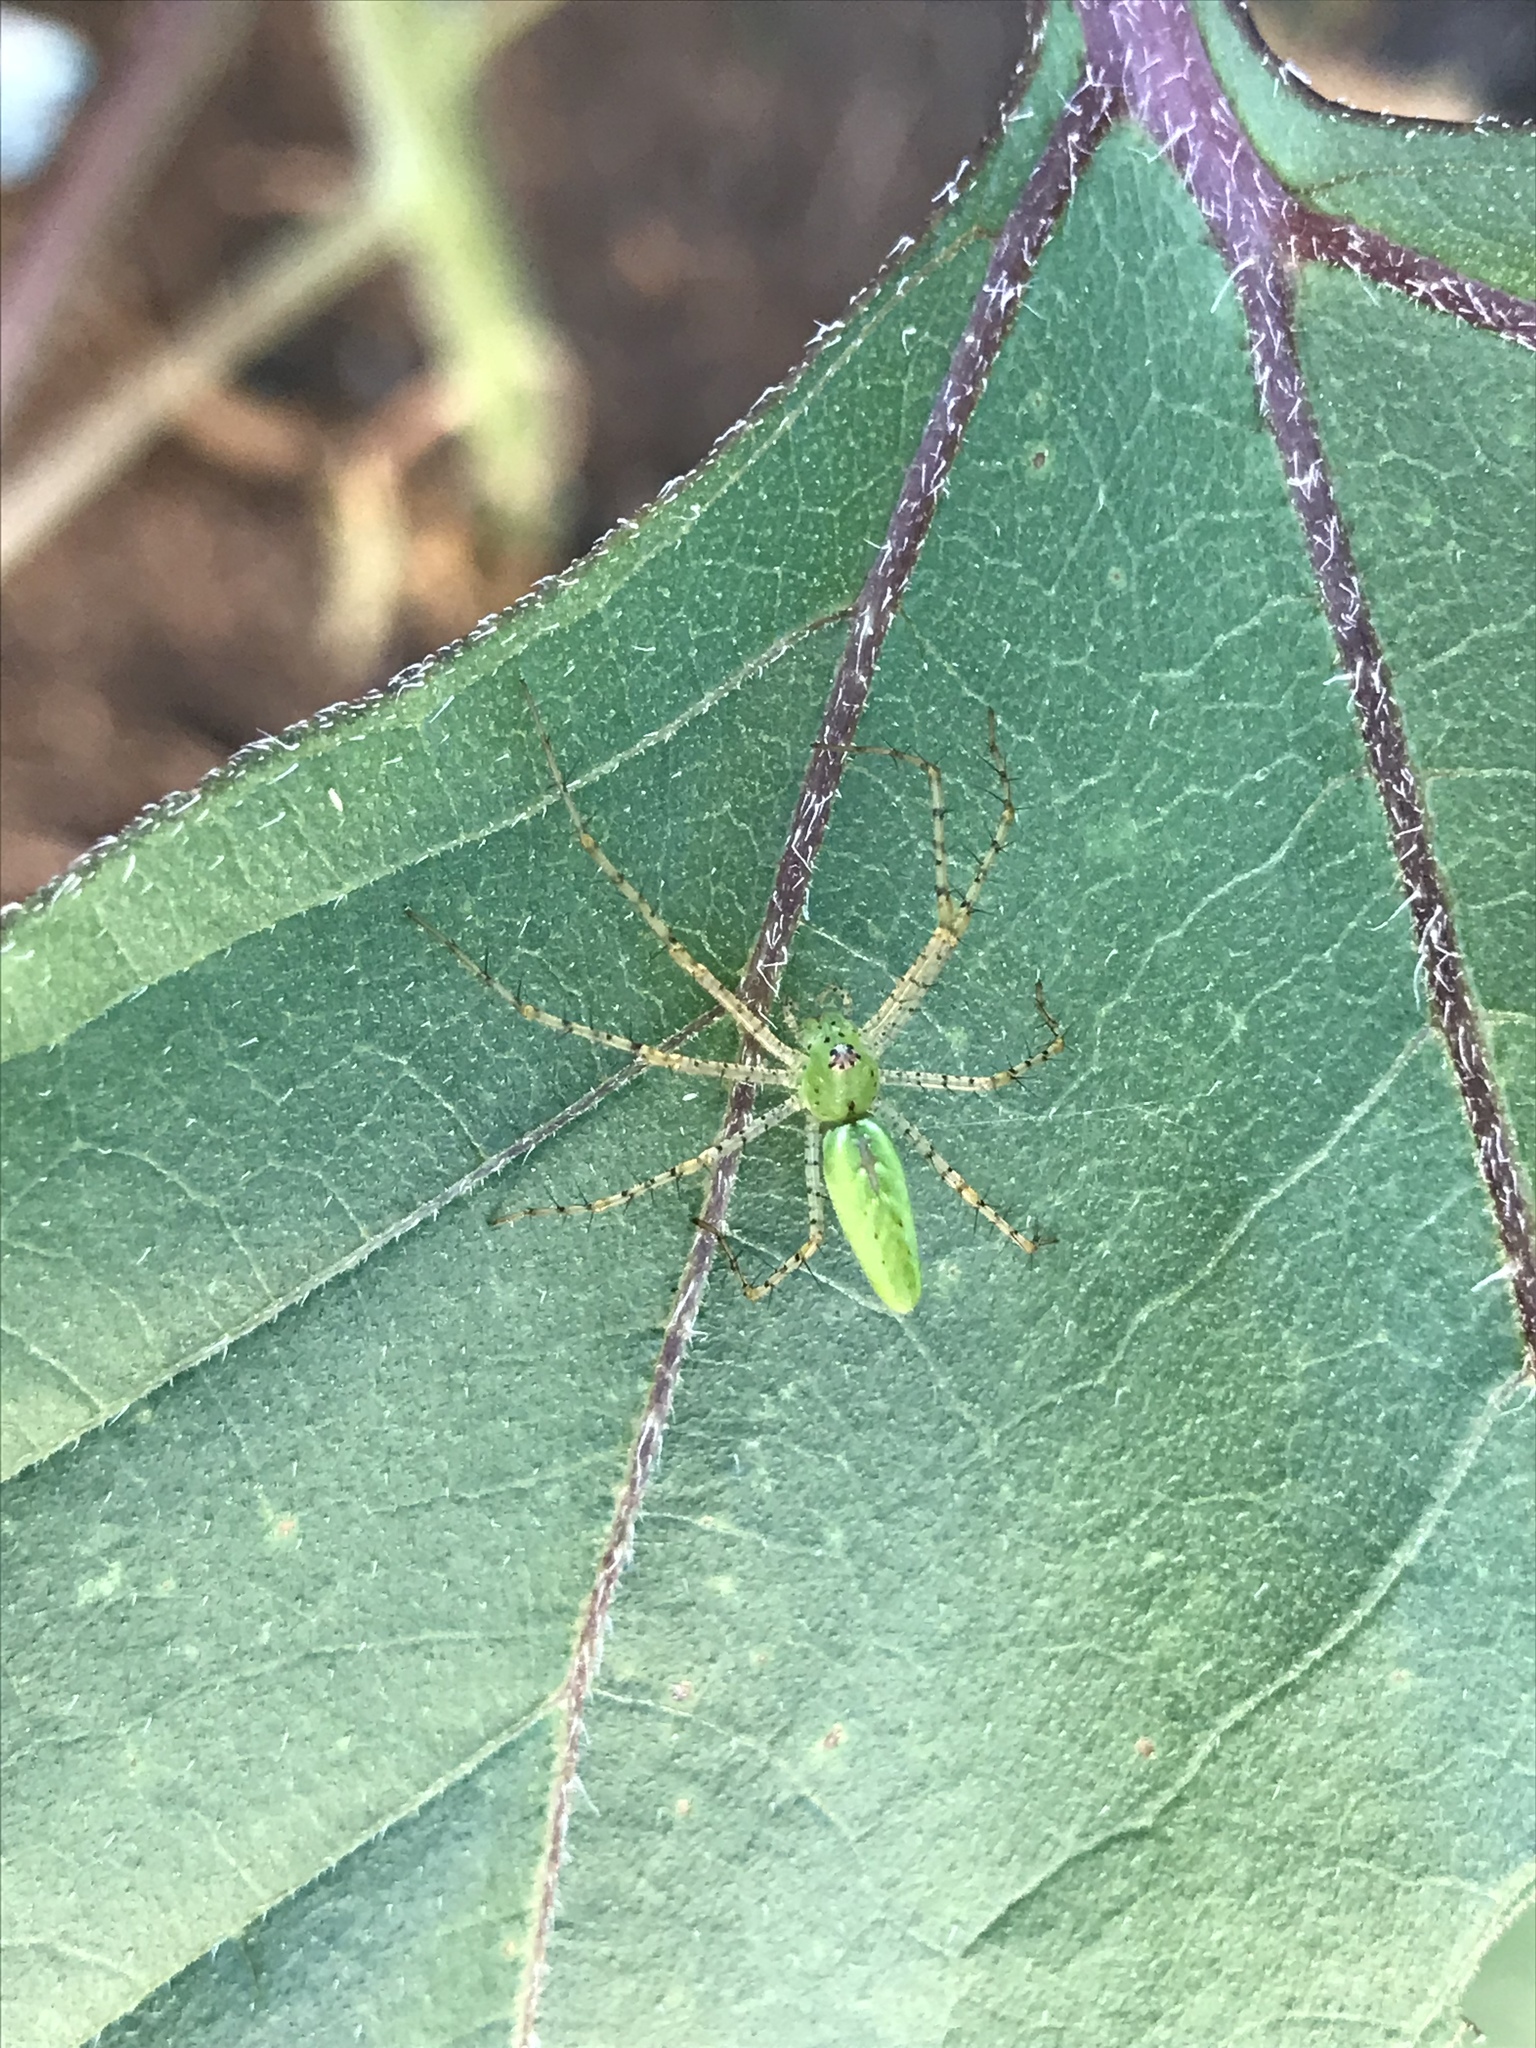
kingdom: Animalia
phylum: Arthropoda
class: Arachnida
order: Araneae
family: Oxyopidae
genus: Peucetia
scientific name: Peucetia viridans
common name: Lynx spiders
